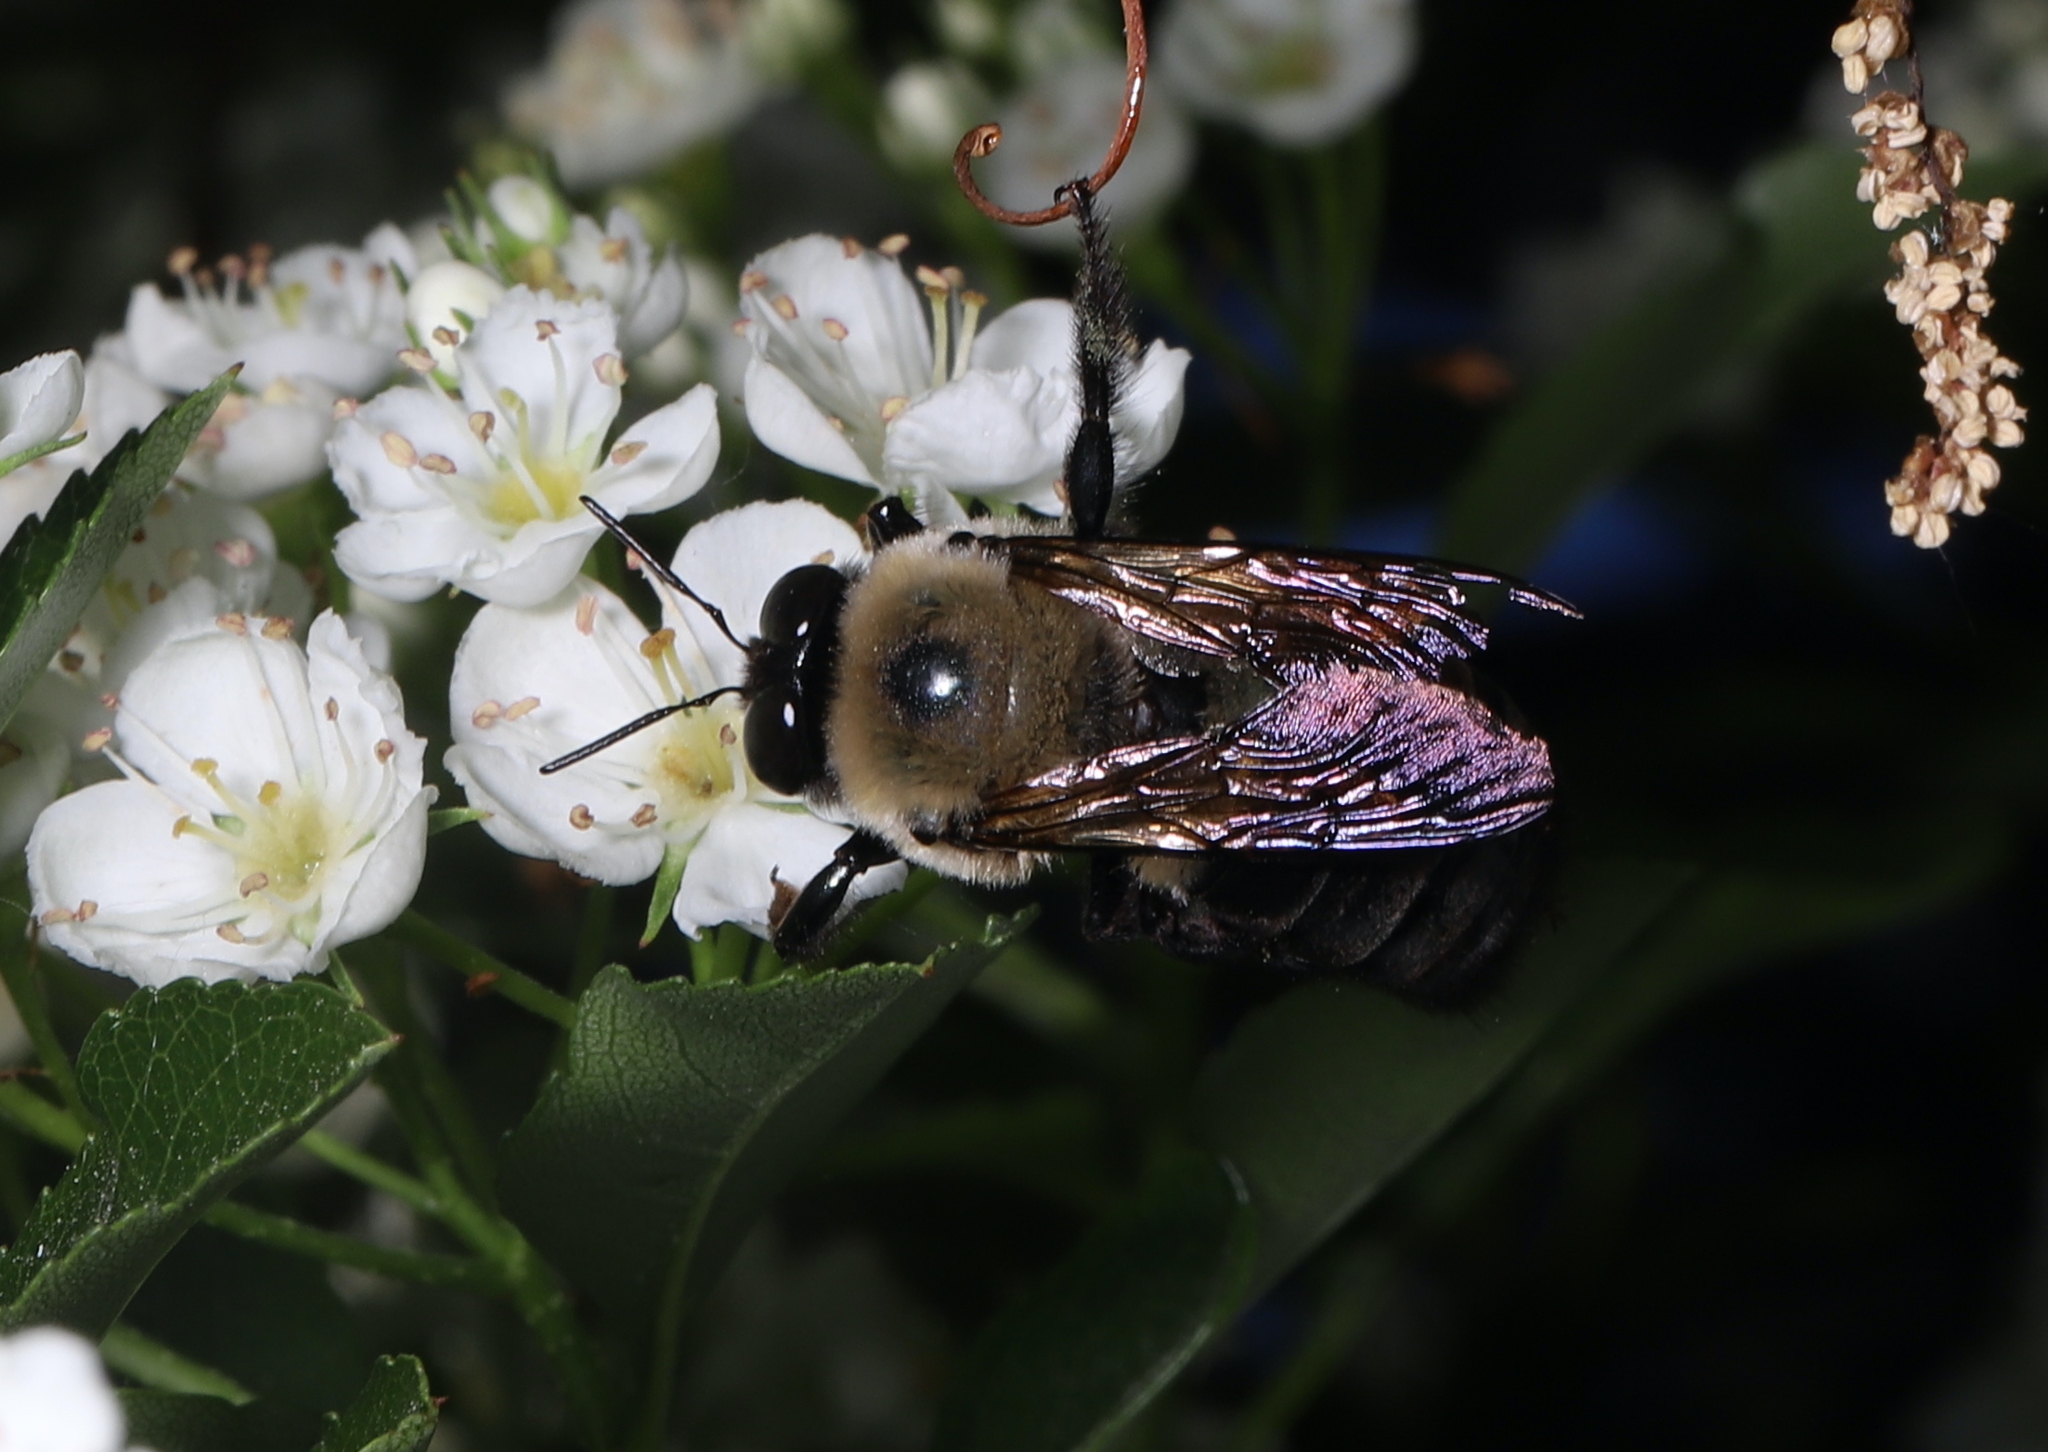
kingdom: Animalia
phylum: Arthropoda
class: Insecta
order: Hymenoptera
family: Apidae
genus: Xylocopa
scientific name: Xylocopa virginica
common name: Carpenter bee
